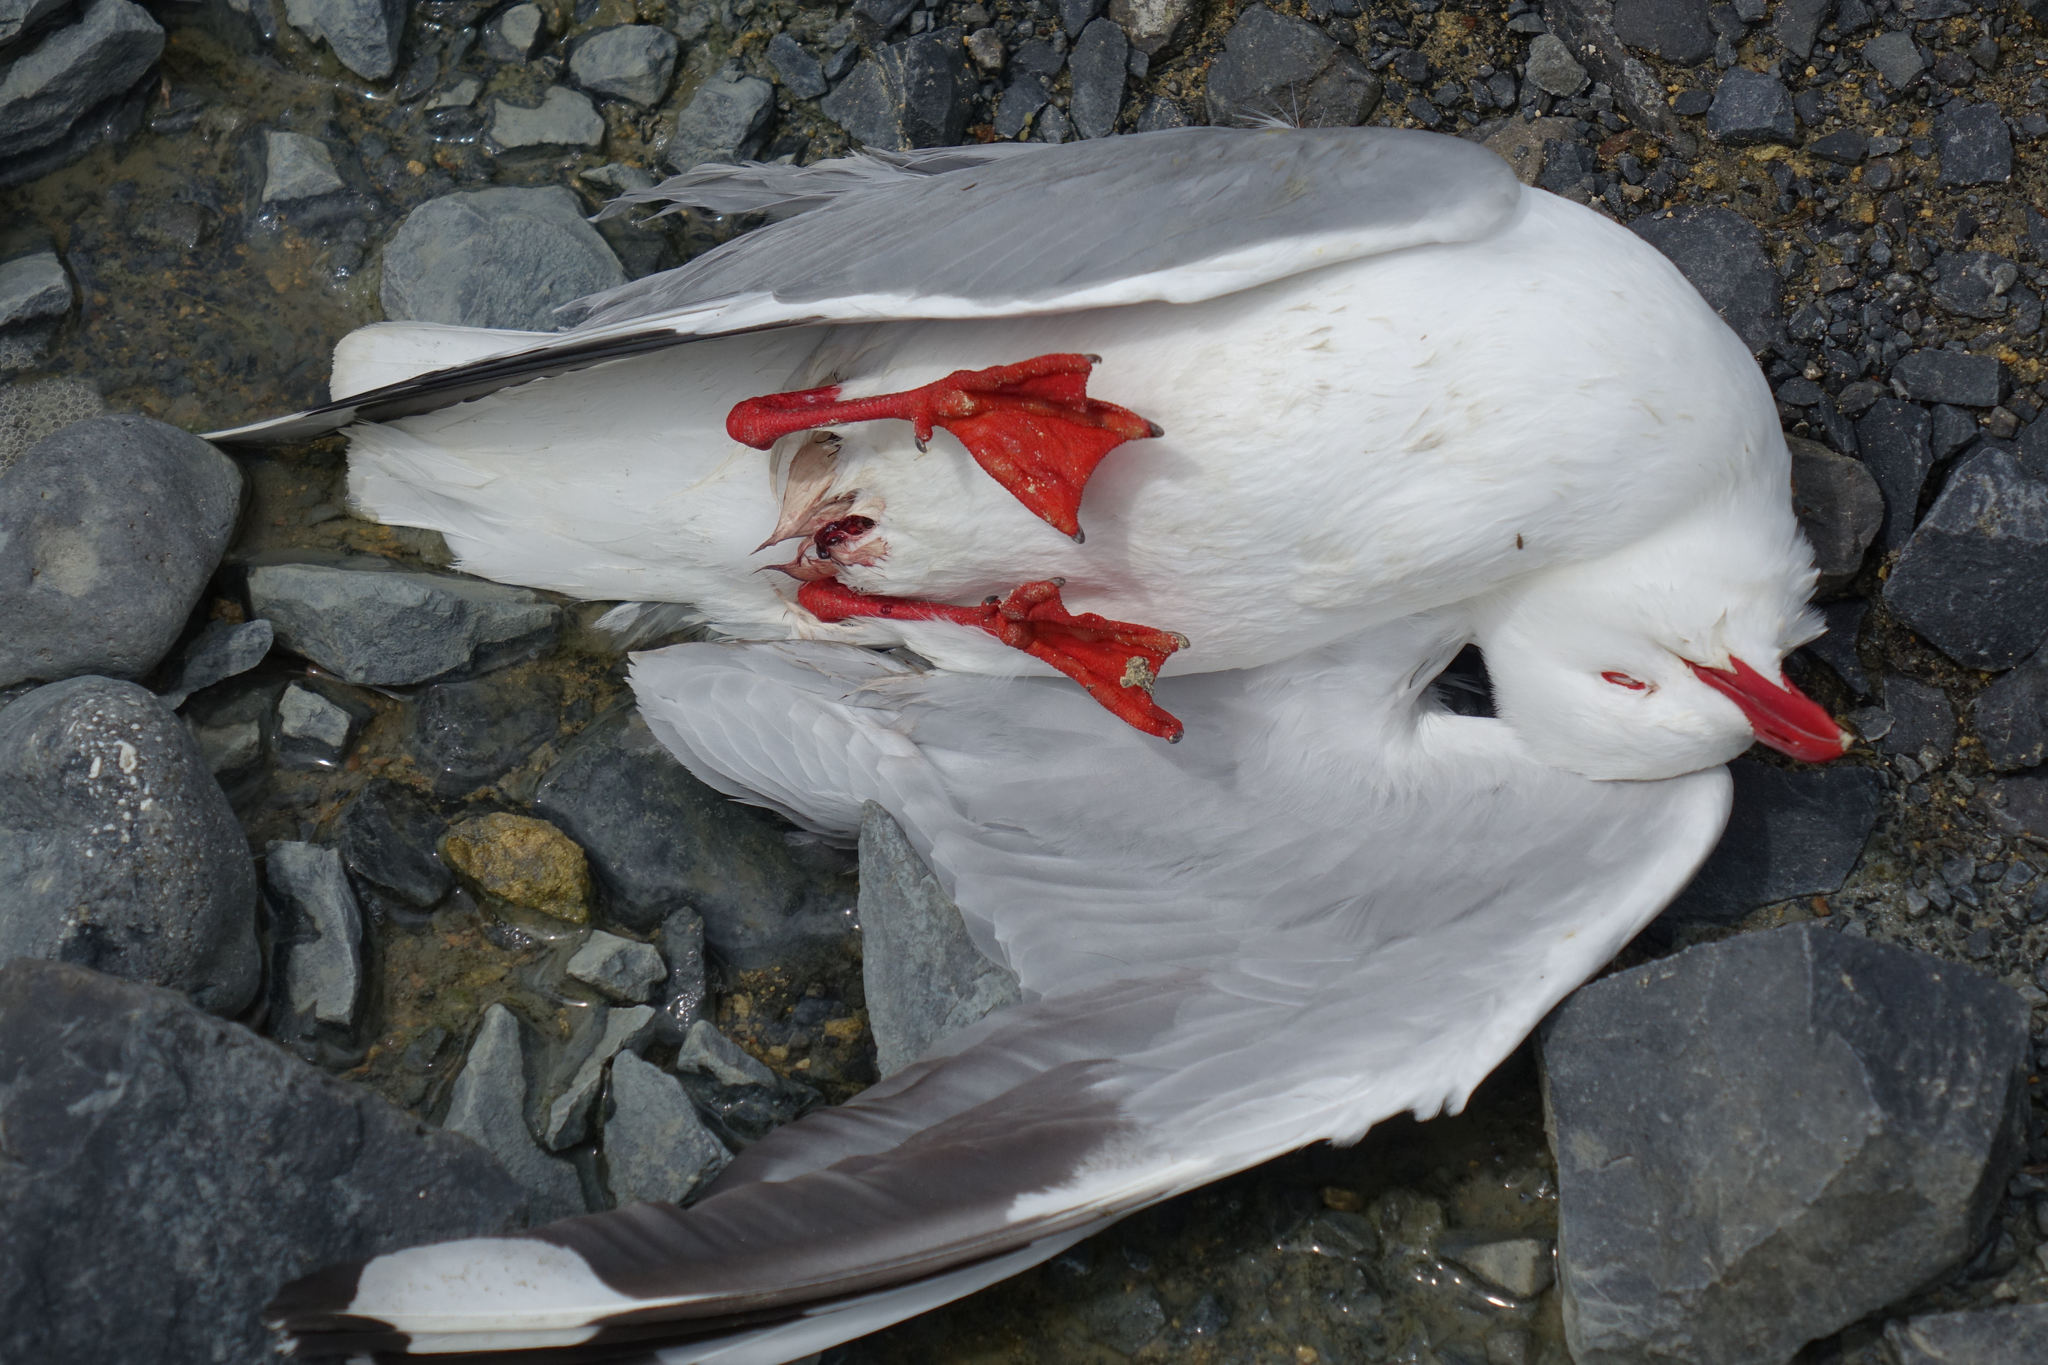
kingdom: Animalia
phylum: Chordata
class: Aves
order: Charadriiformes
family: Laridae
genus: Chroicocephalus
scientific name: Chroicocephalus novaehollandiae
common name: Silver gull
